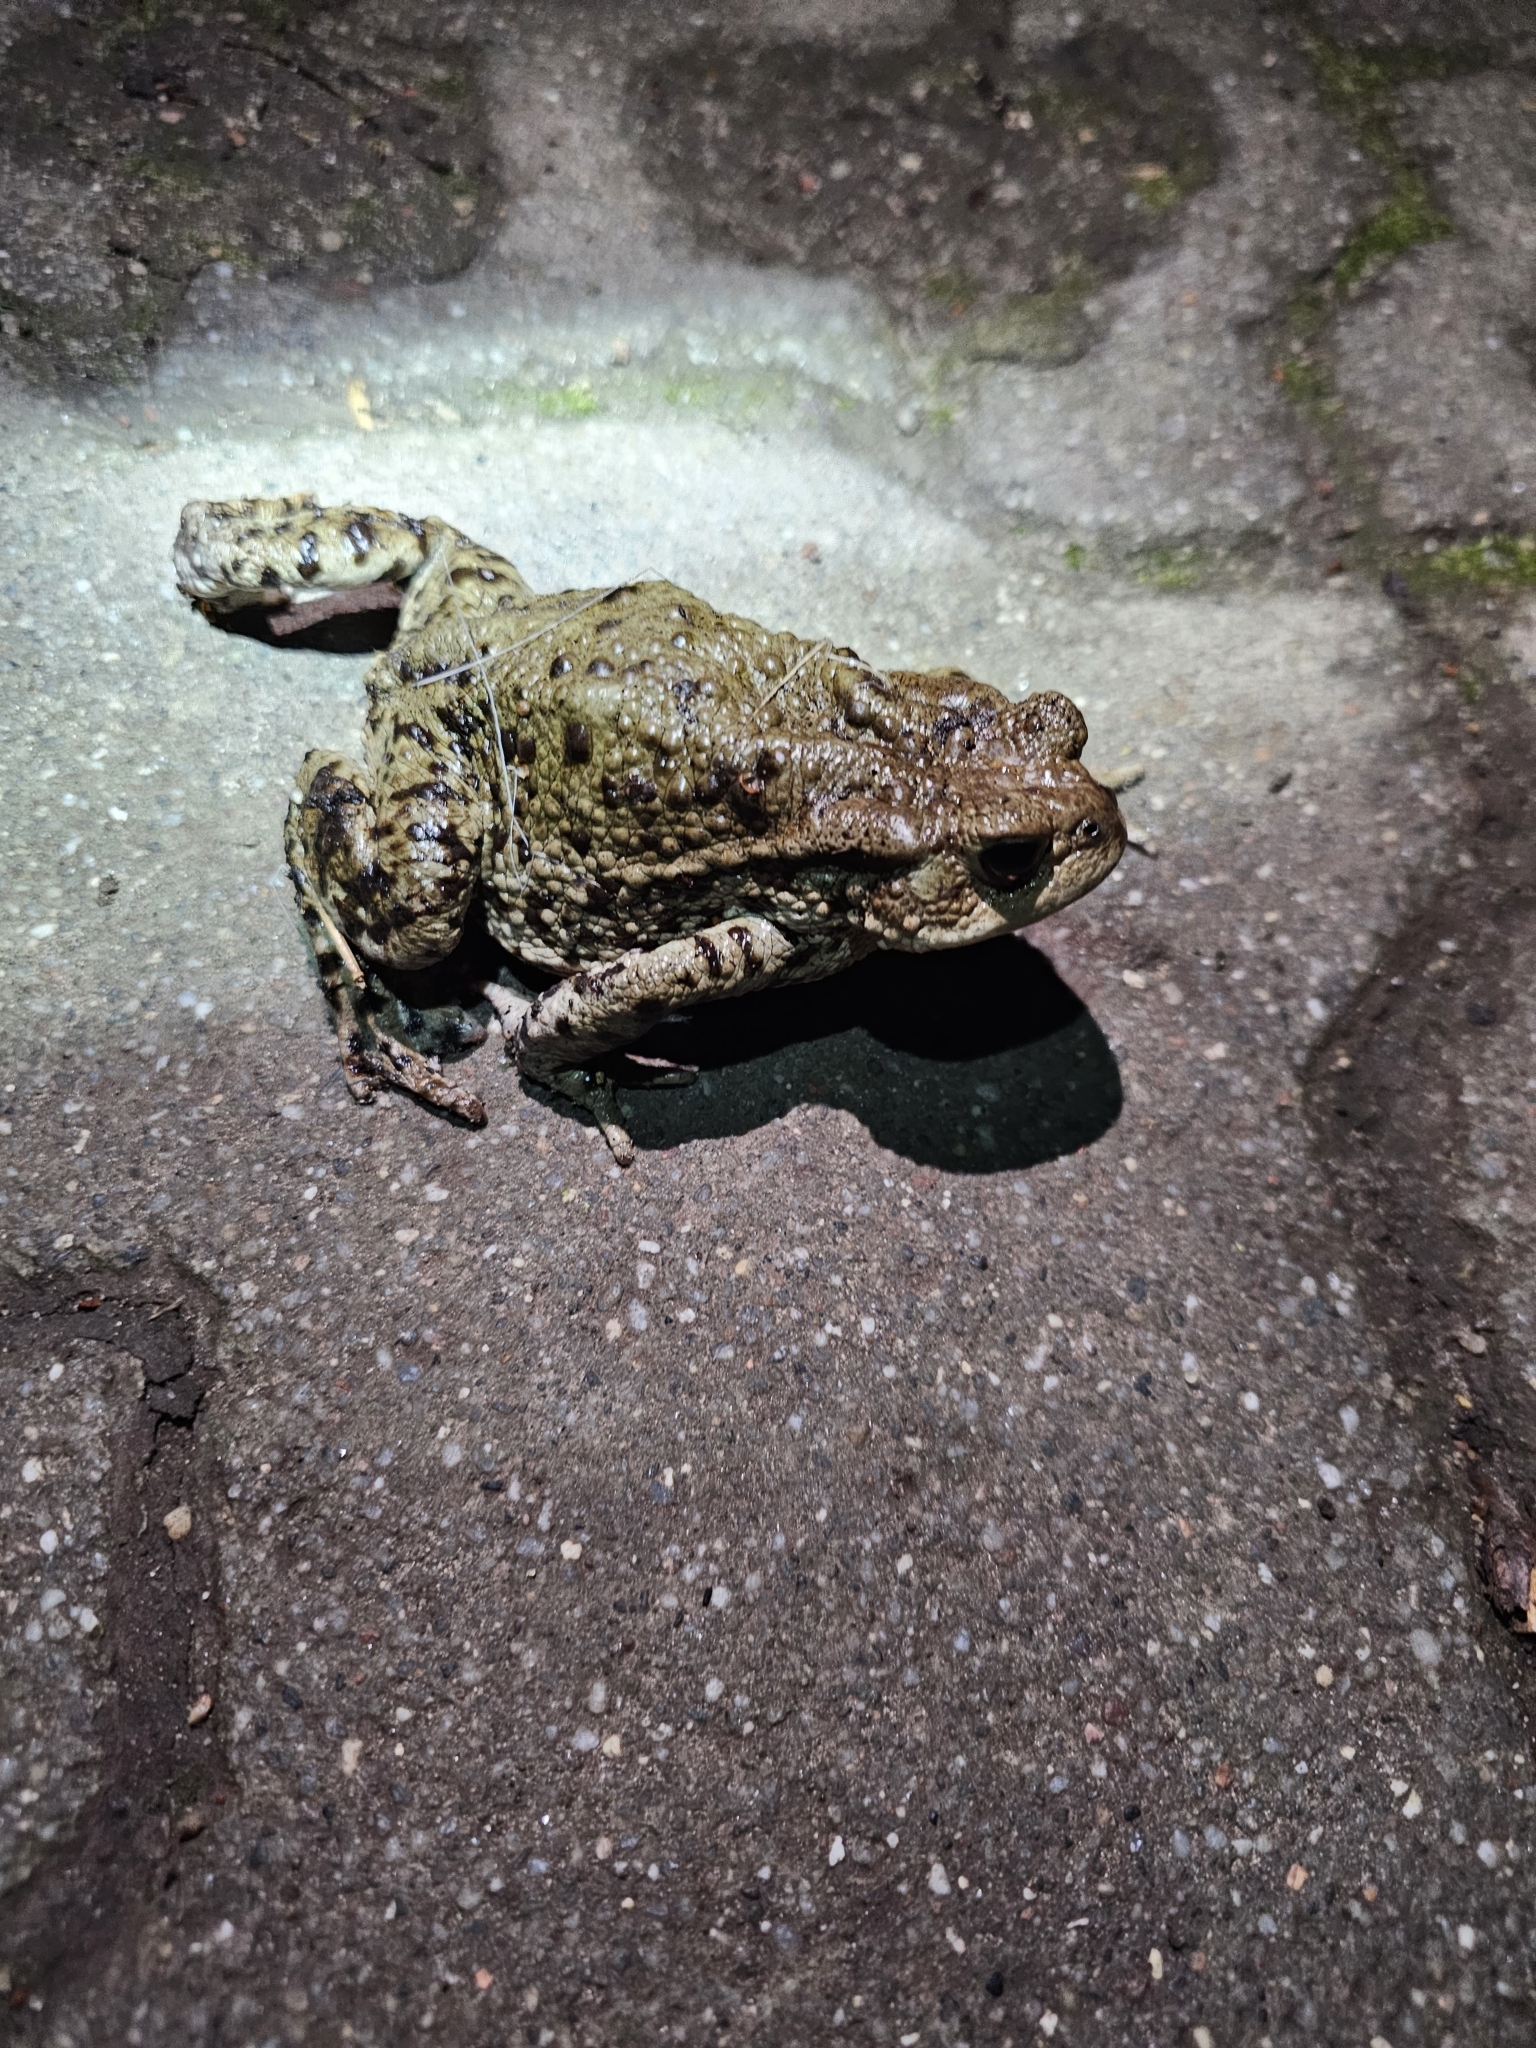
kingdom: Animalia
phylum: Chordata
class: Amphibia
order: Anura
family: Bufonidae
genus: Bufo
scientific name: Bufo bufo
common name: Common toad
